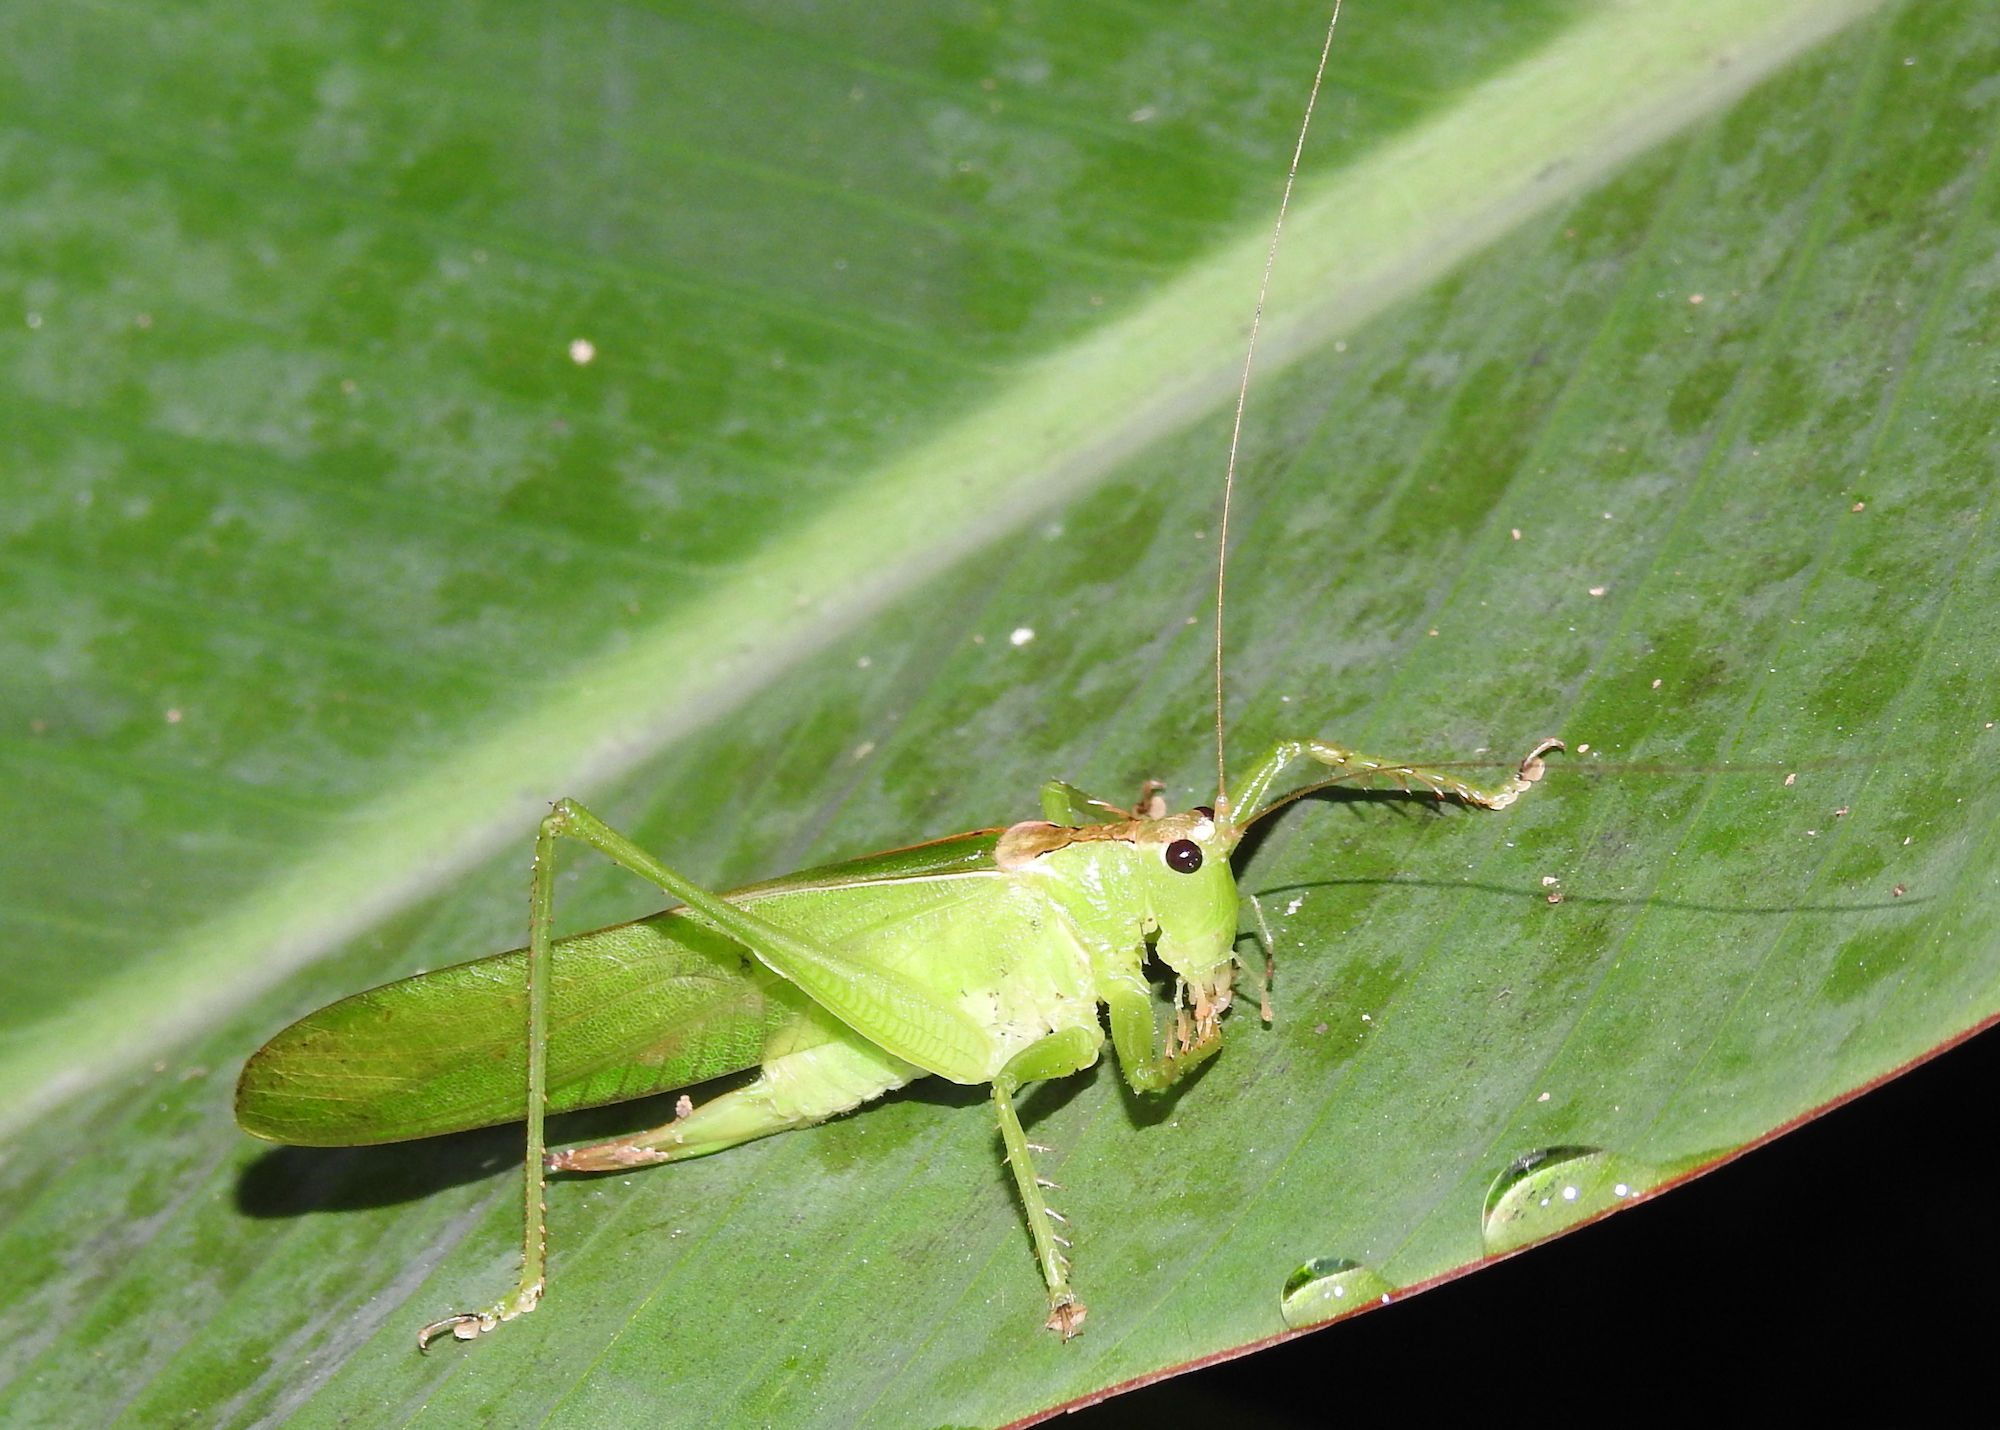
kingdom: Animalia
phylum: Arthropoda
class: Insecta
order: Orthoptera
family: Tettigoniidae
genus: Hexacentrus
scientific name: Hexacentrus unicolor
